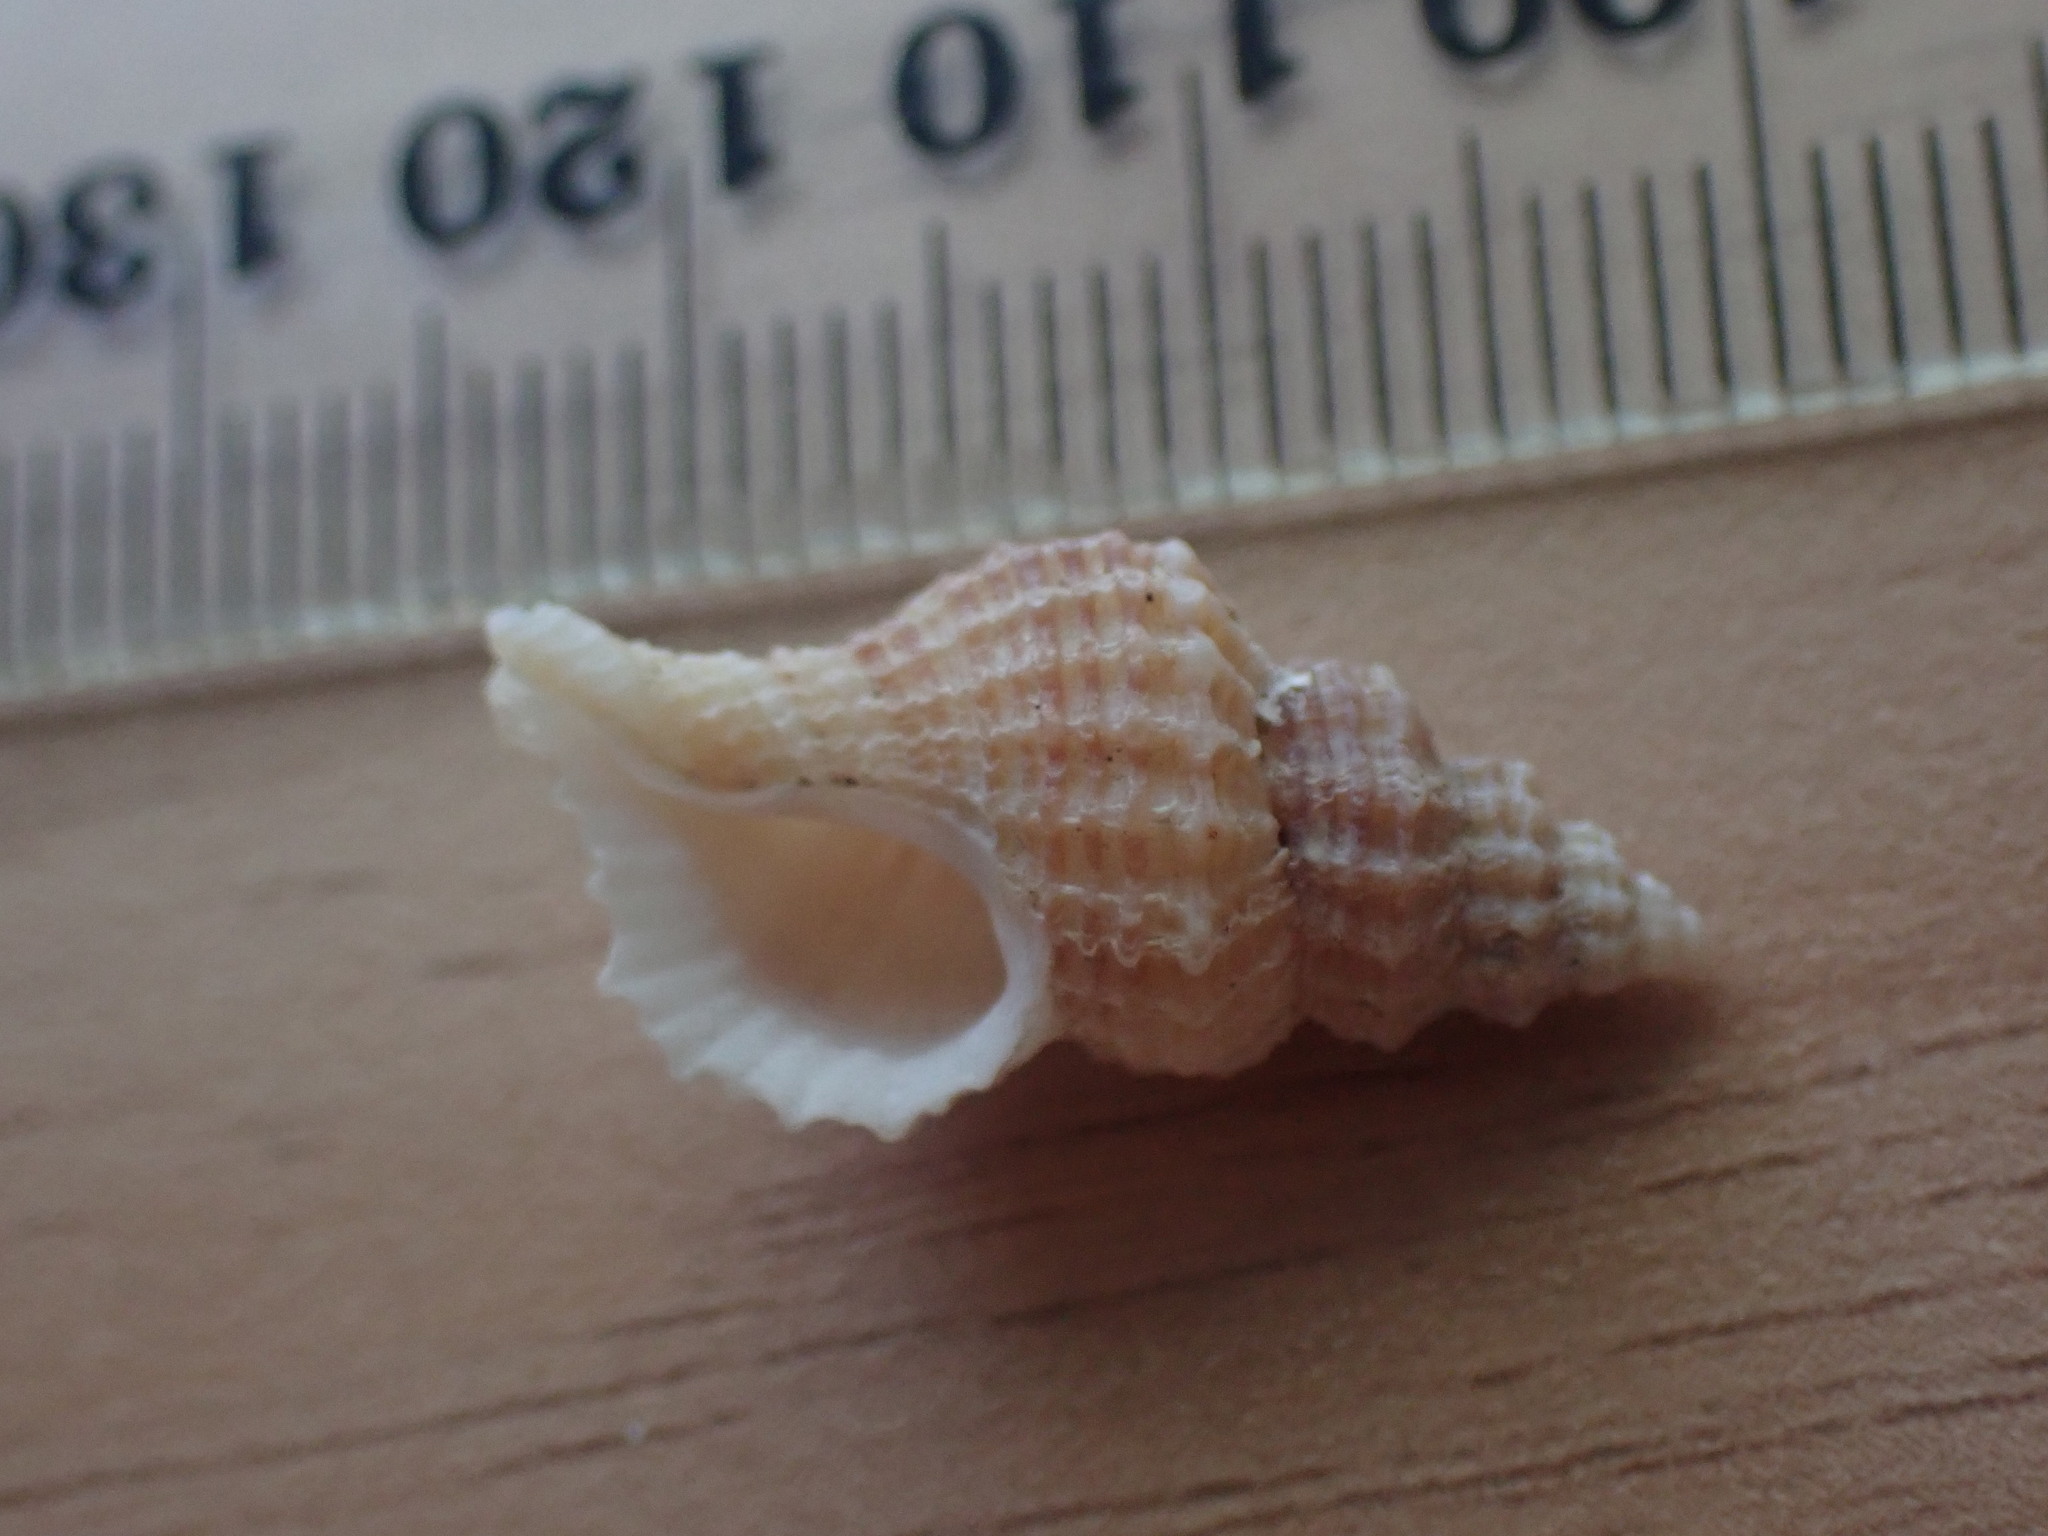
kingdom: Animalia
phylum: Mollusca
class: Gastropoda
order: Neogastropoda
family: Muricidae
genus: Zeatrophon
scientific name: Zeatrophon mortenseni
